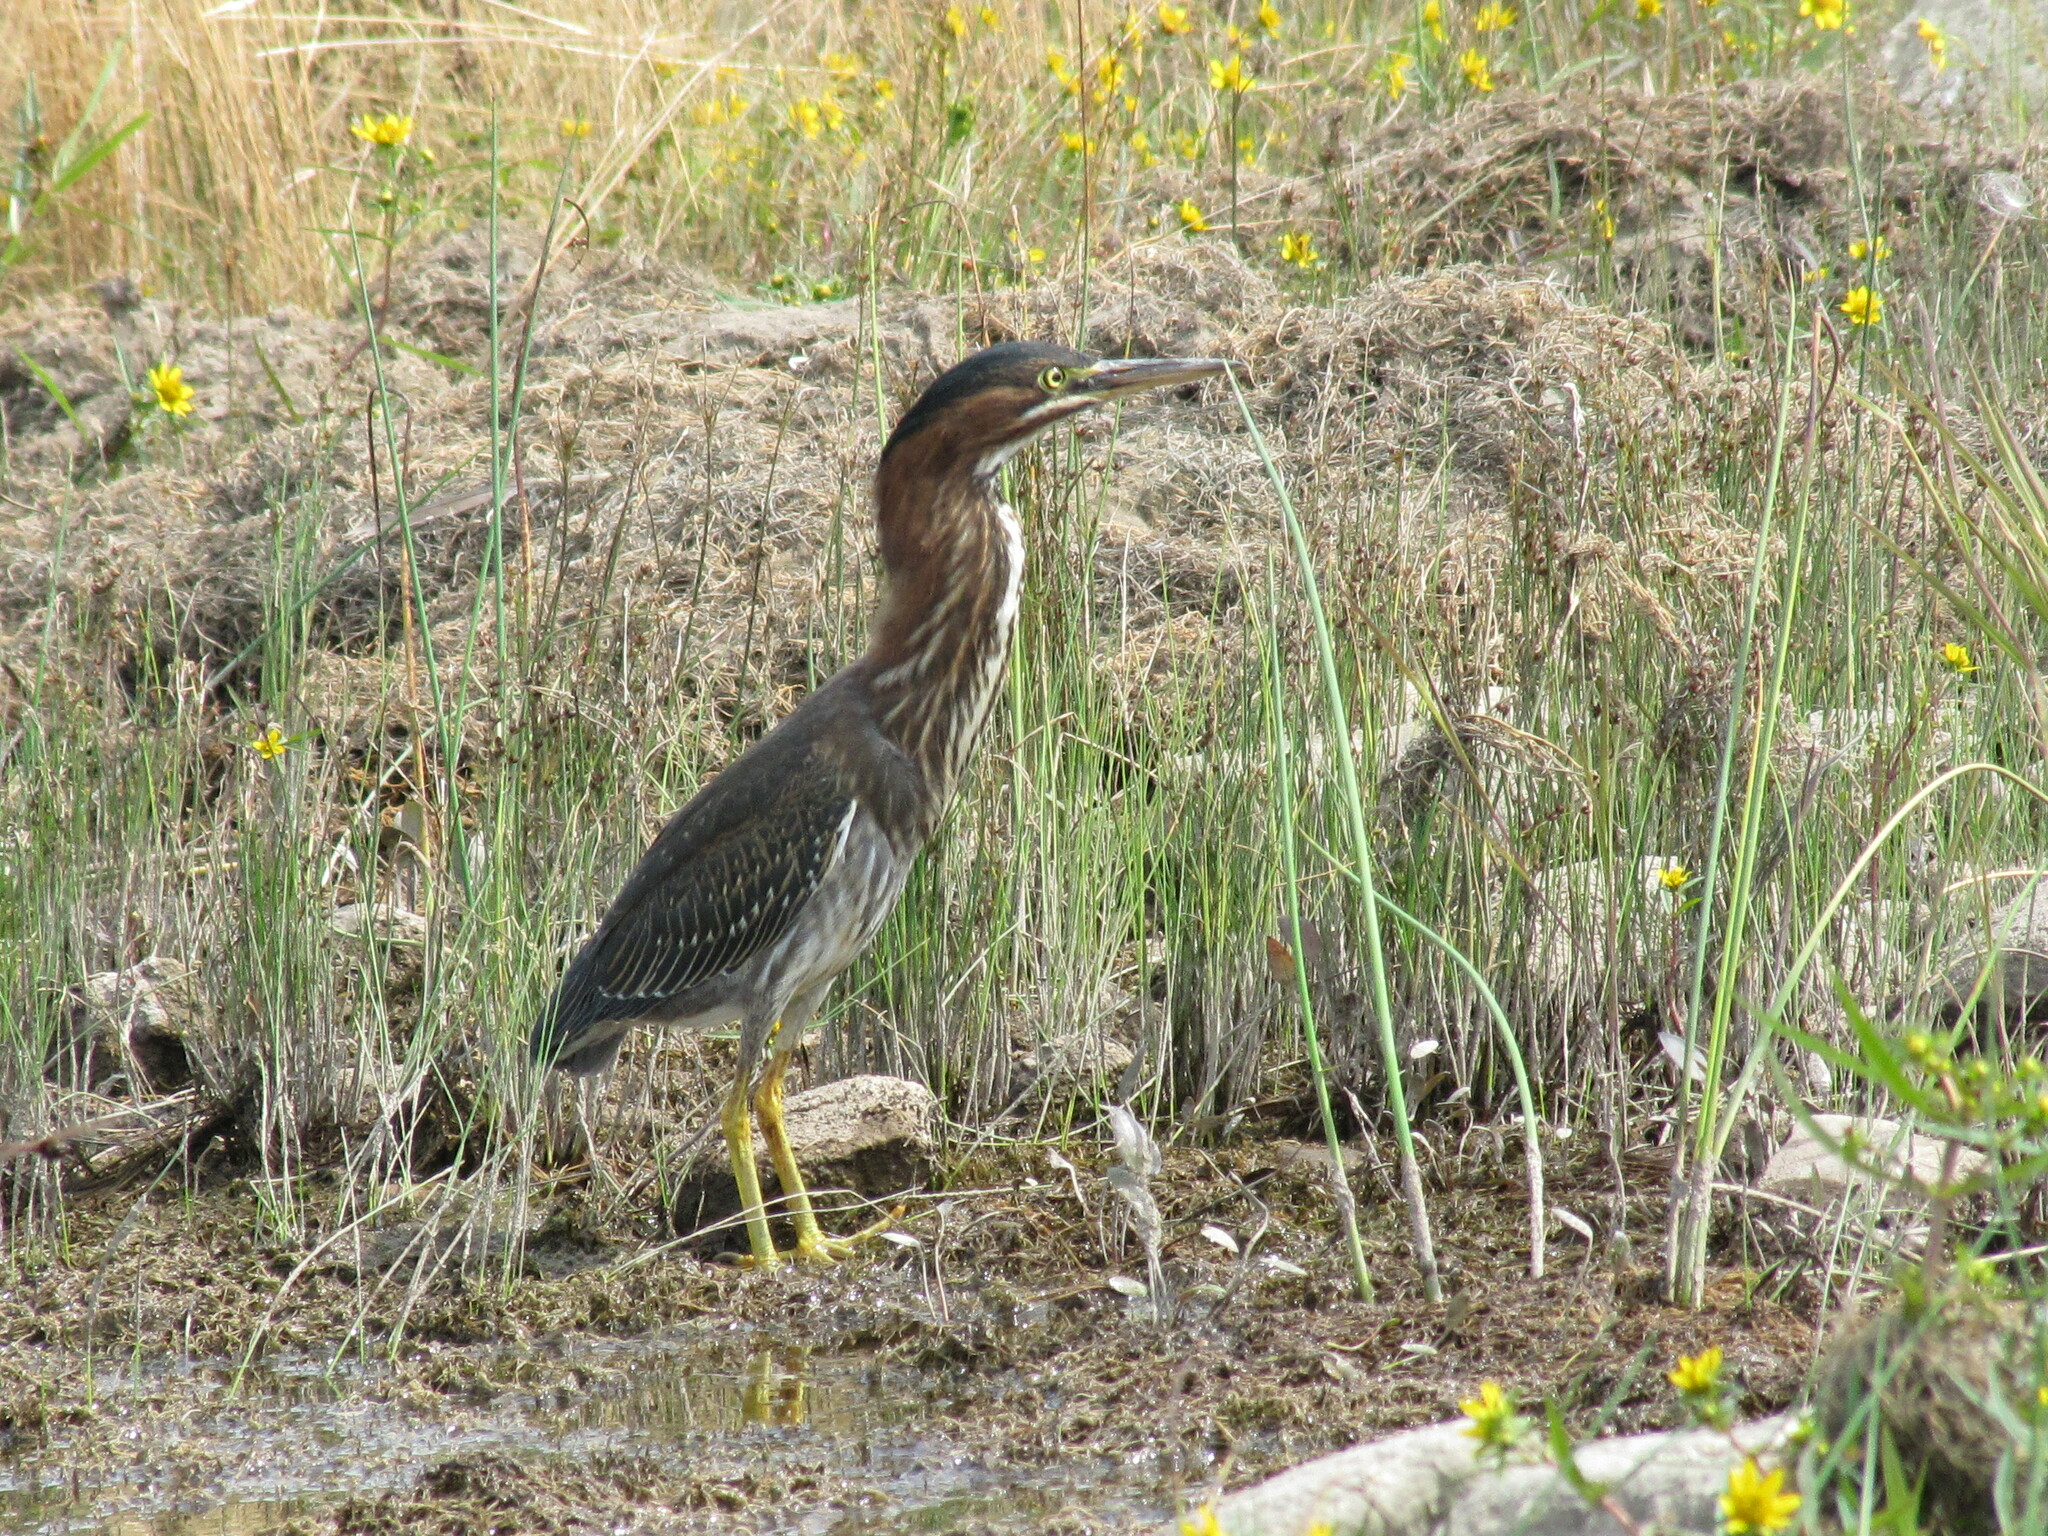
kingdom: Animalia
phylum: Chordata
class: Aves
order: Pelecaniformes
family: Ardeidae
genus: Butorides
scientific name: Butorides virescens
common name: Green heron
